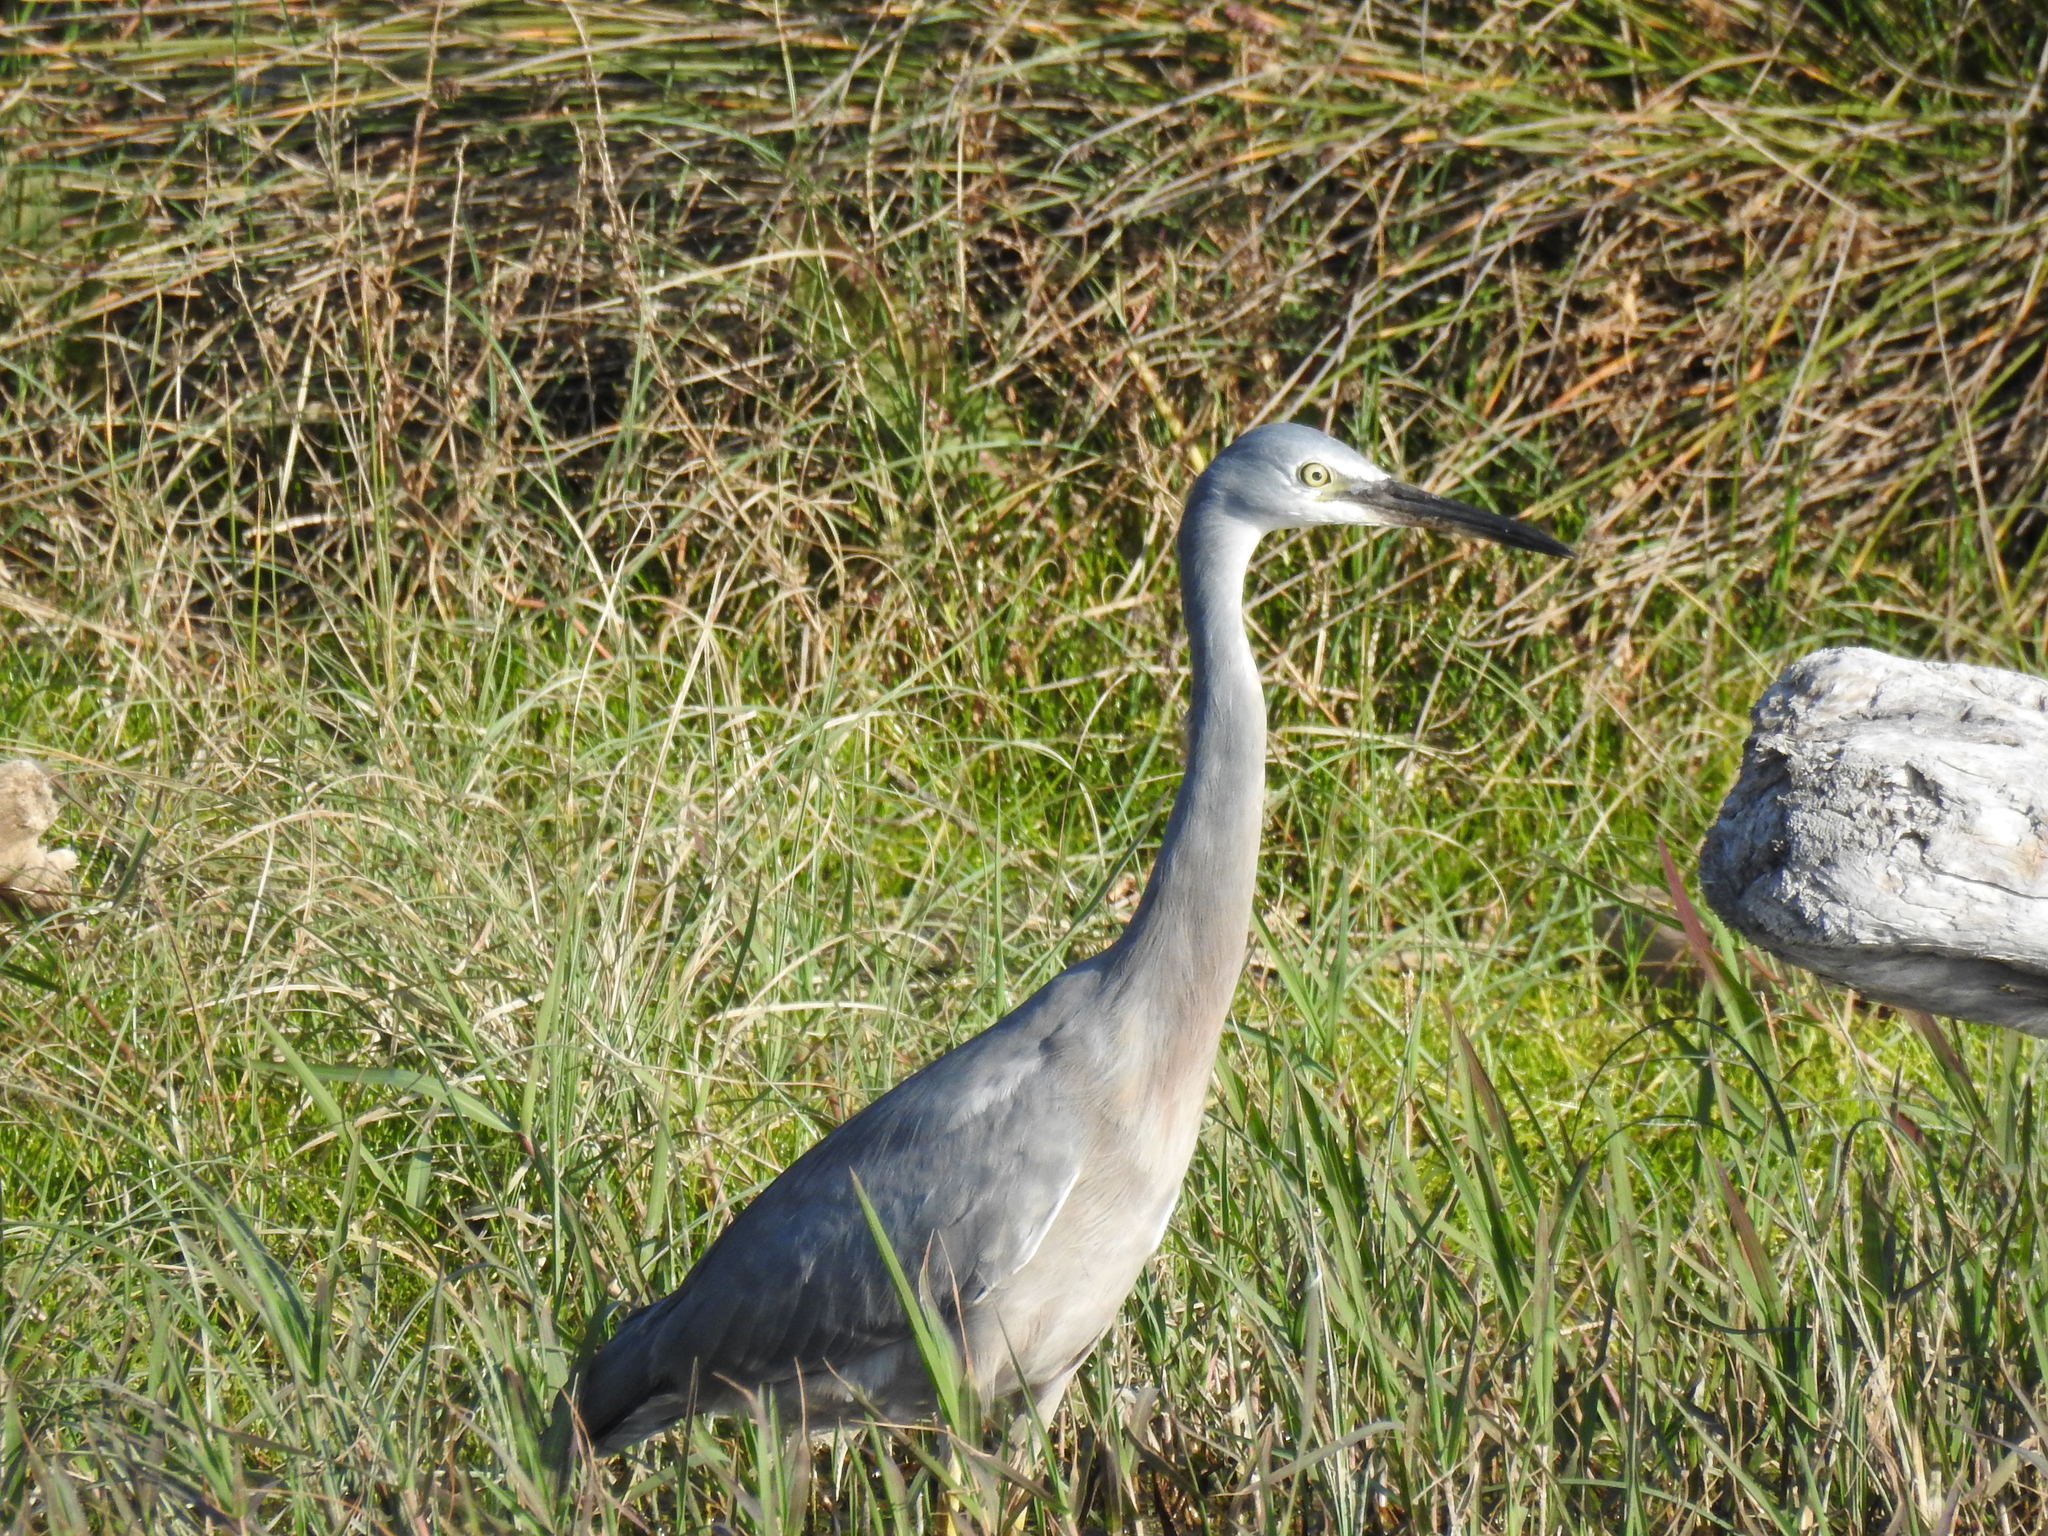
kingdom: Animalia
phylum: Chordata
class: Aves
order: Pelecaniformes
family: Ardeidae
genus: Egretta
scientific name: Egretta novaehollandiae
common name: White-faced heron
